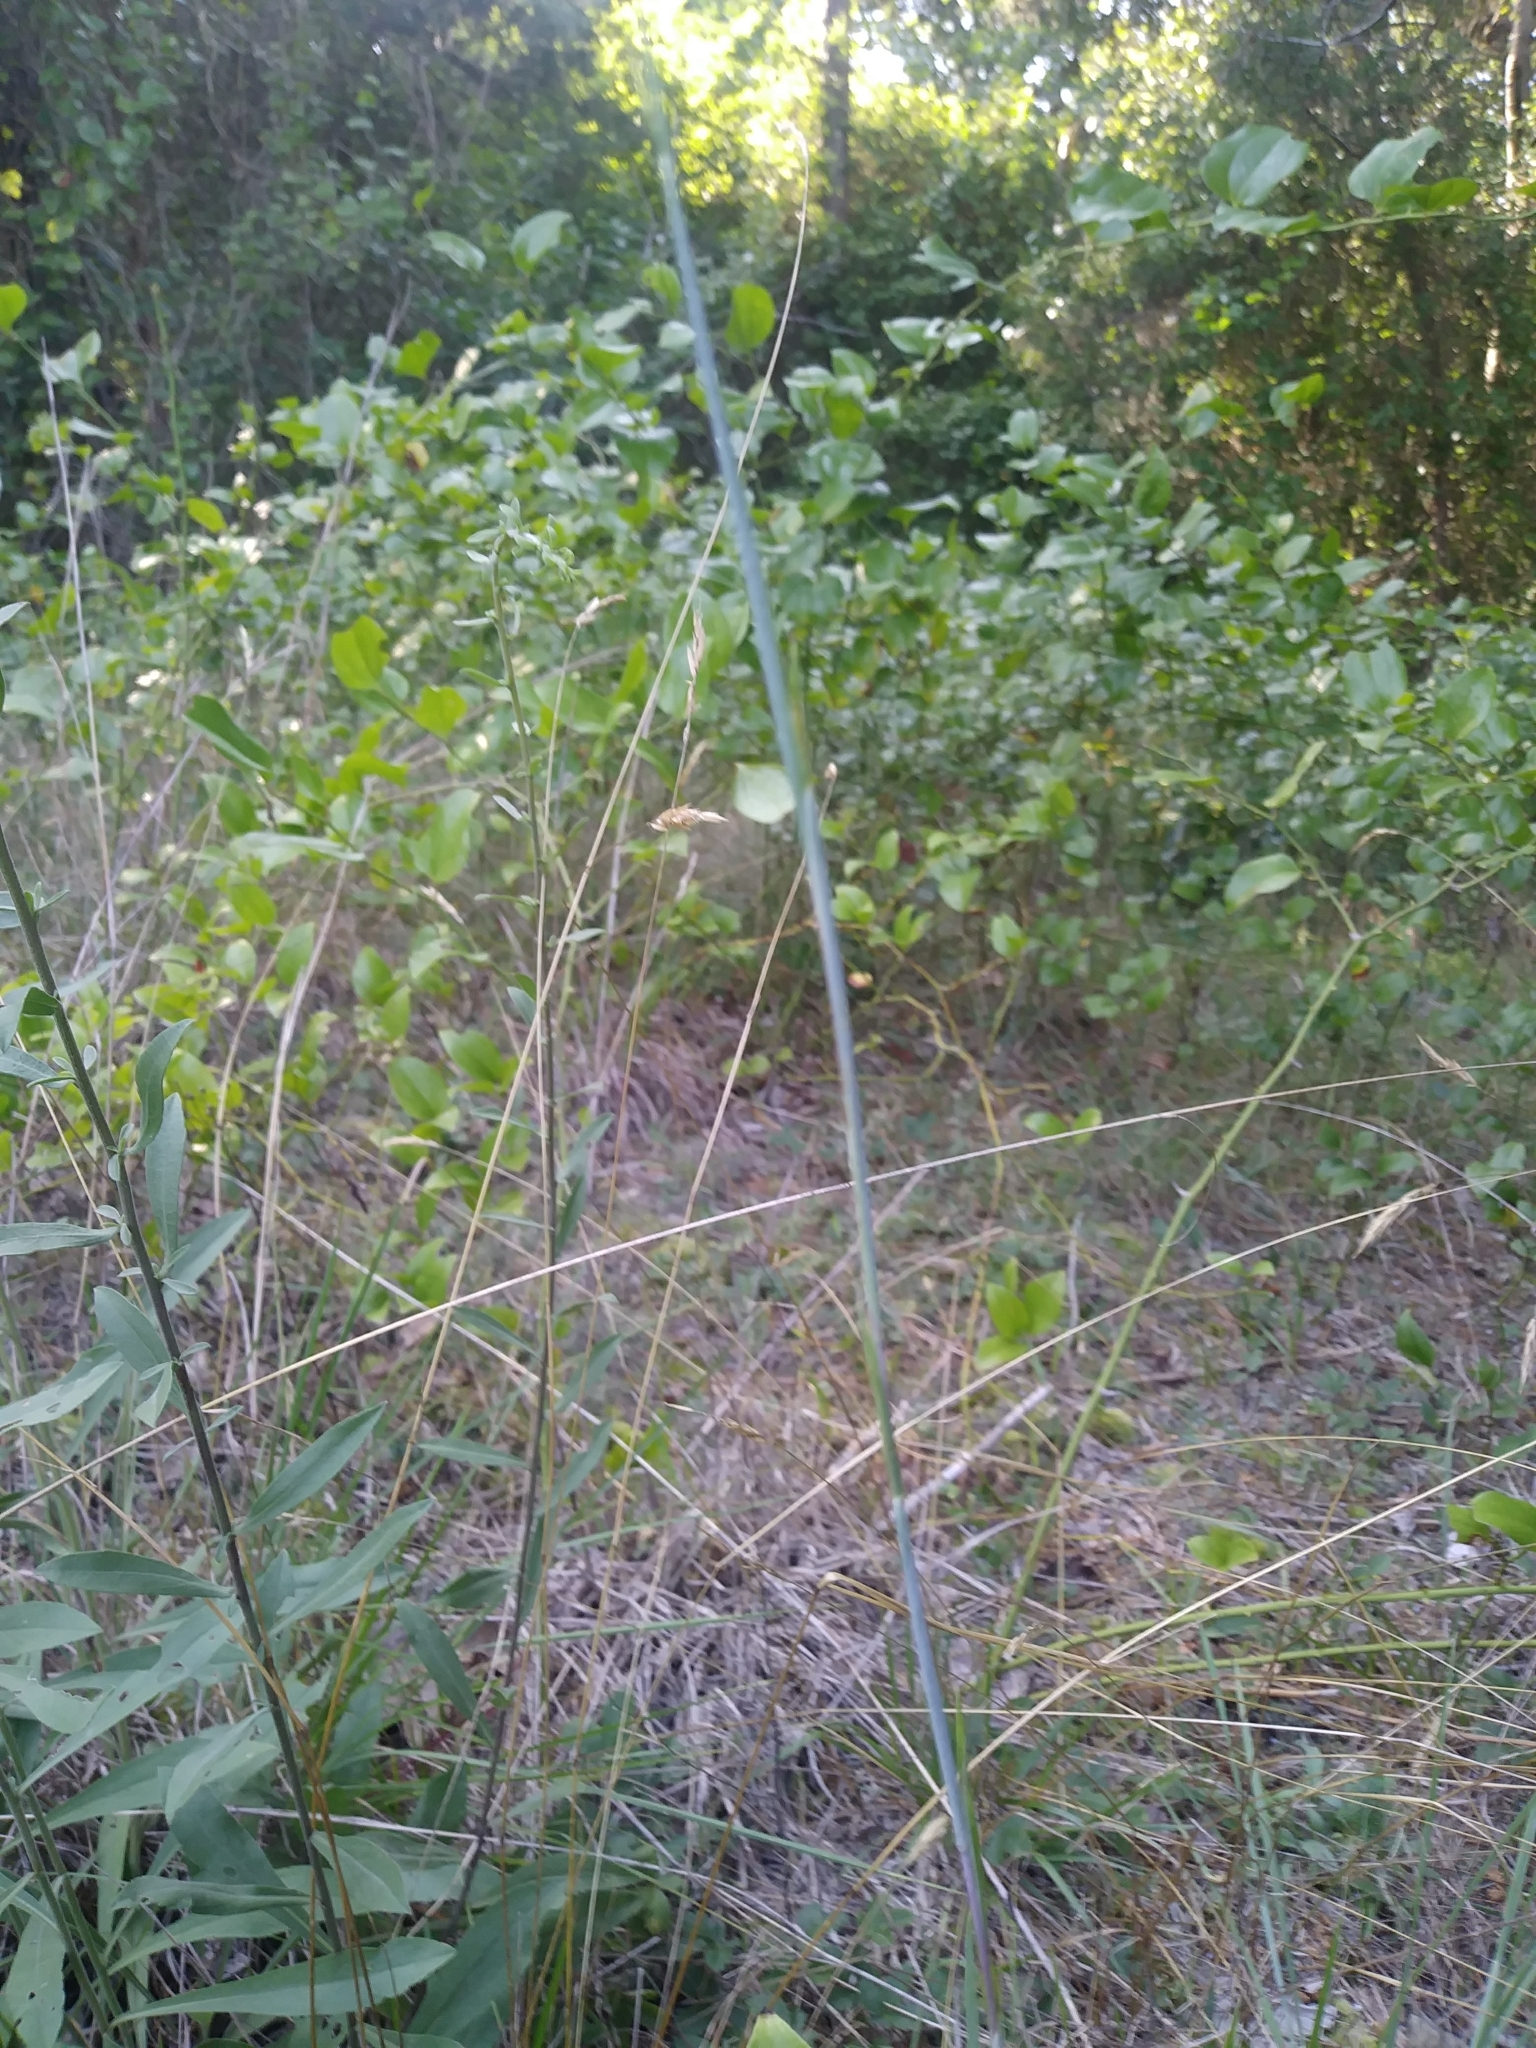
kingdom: Plantae
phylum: Tracheophyta
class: Liliopsida
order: Poales
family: Poaceae
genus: Schizachyrium
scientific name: Schizachyrium scoparium
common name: Little bluestem
